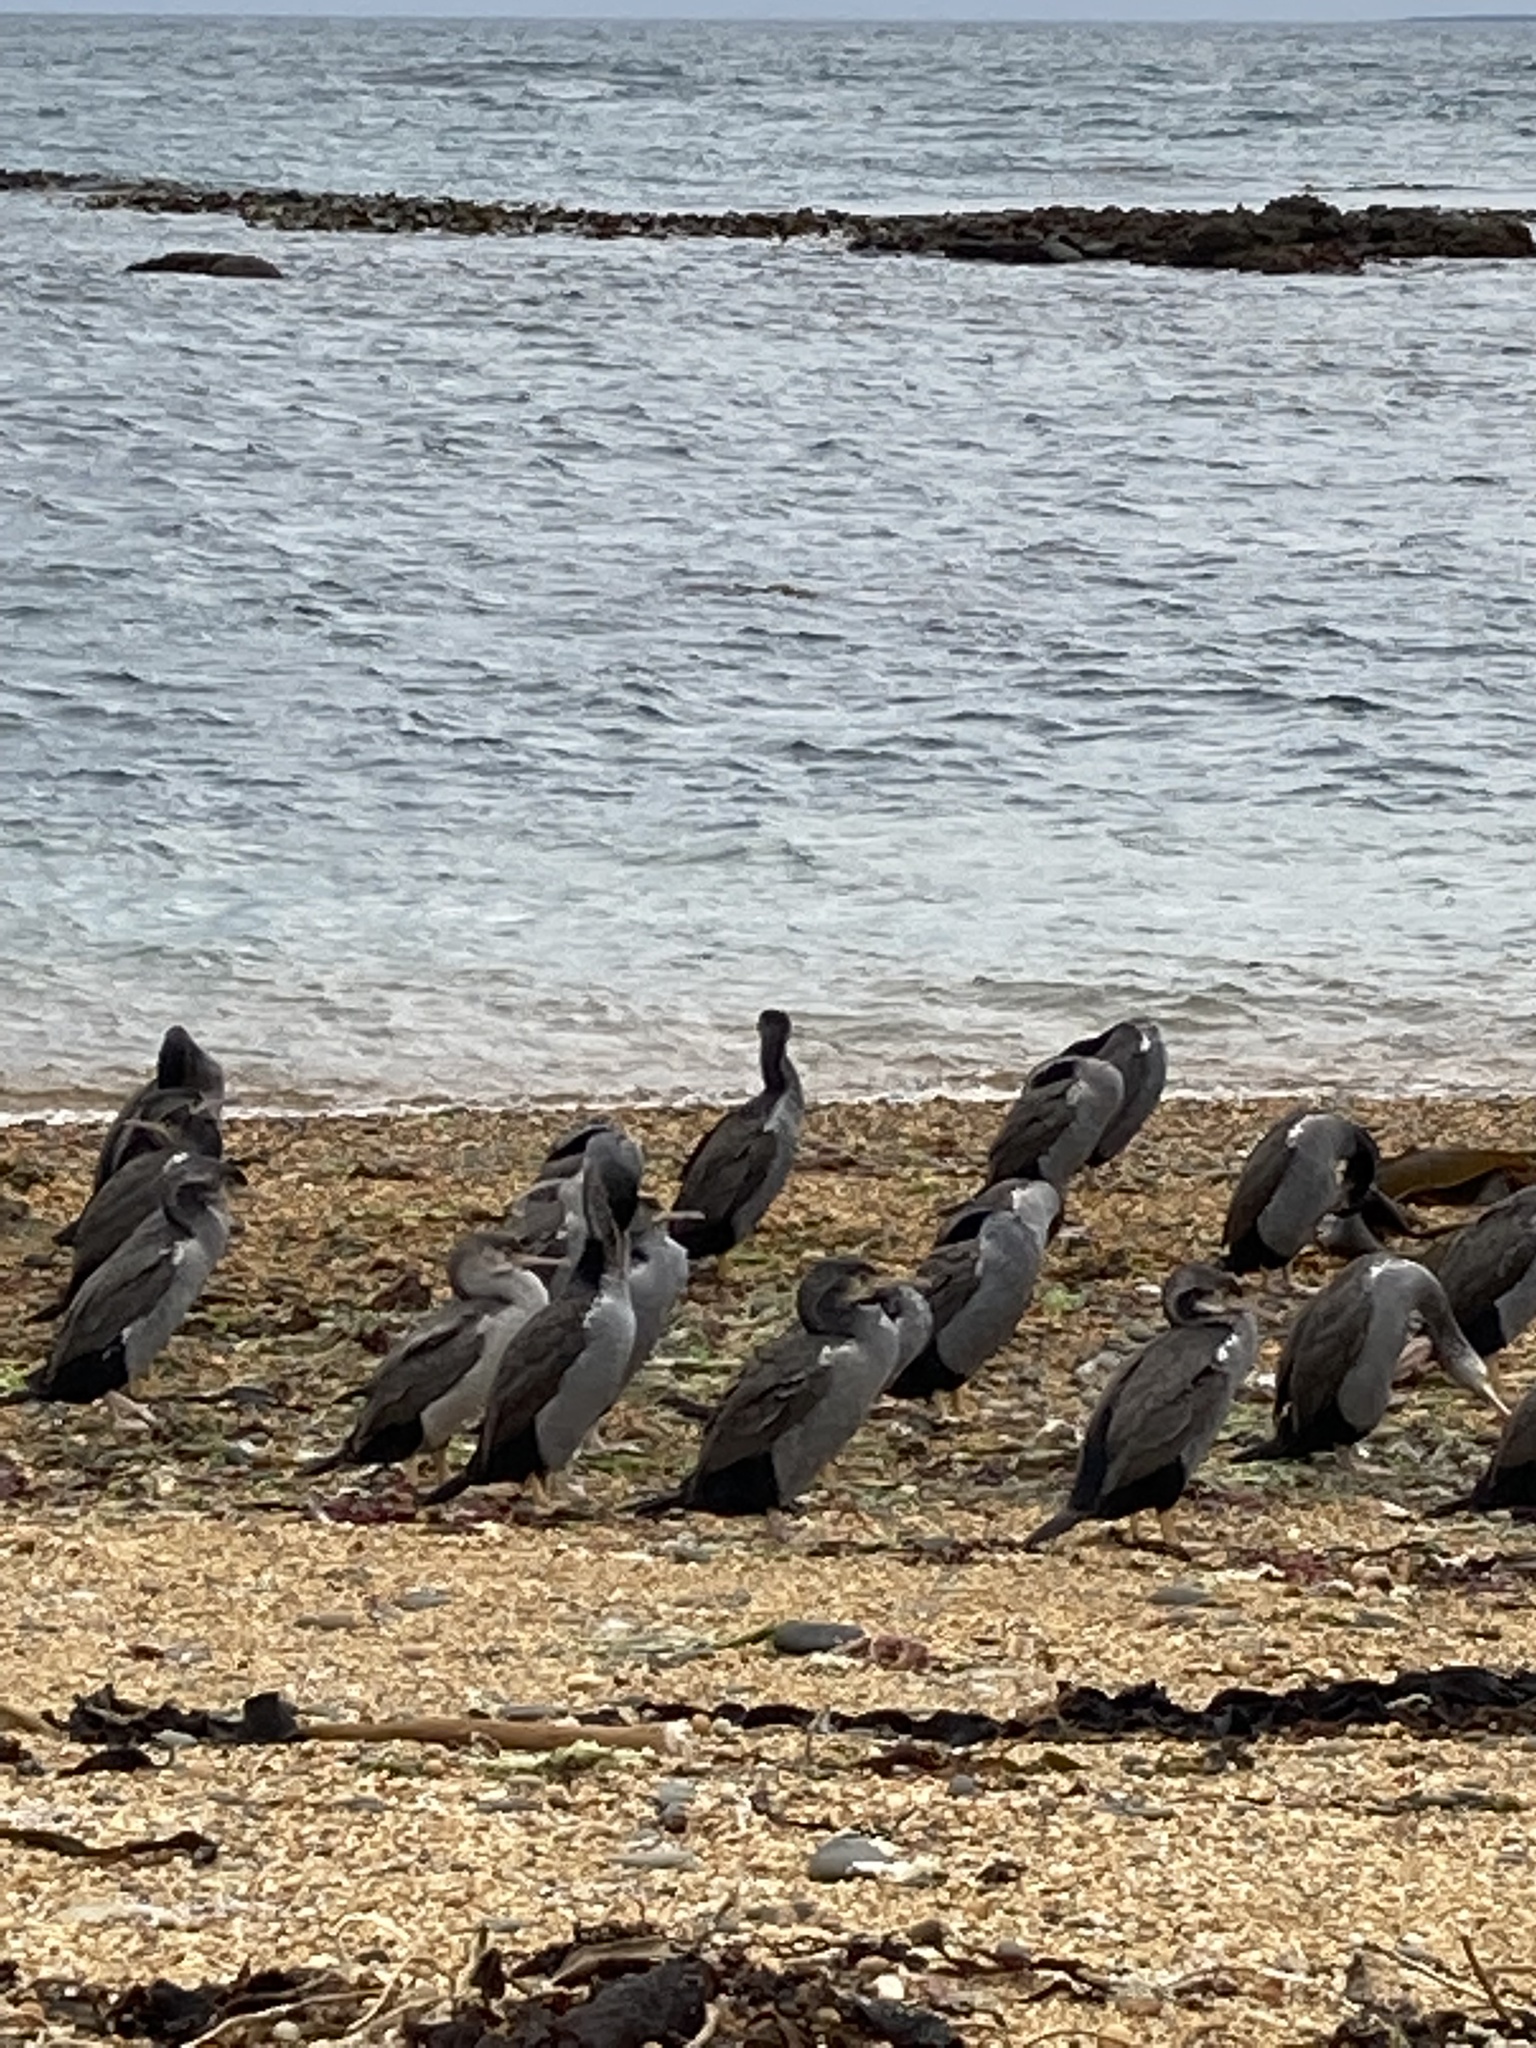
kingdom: Animalia
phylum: Chordata
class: Aves
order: Suliformes
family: Phalacrocoracidae
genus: Phalacrocorax
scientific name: Phalacrocorax punctatus
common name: Spotted shag
